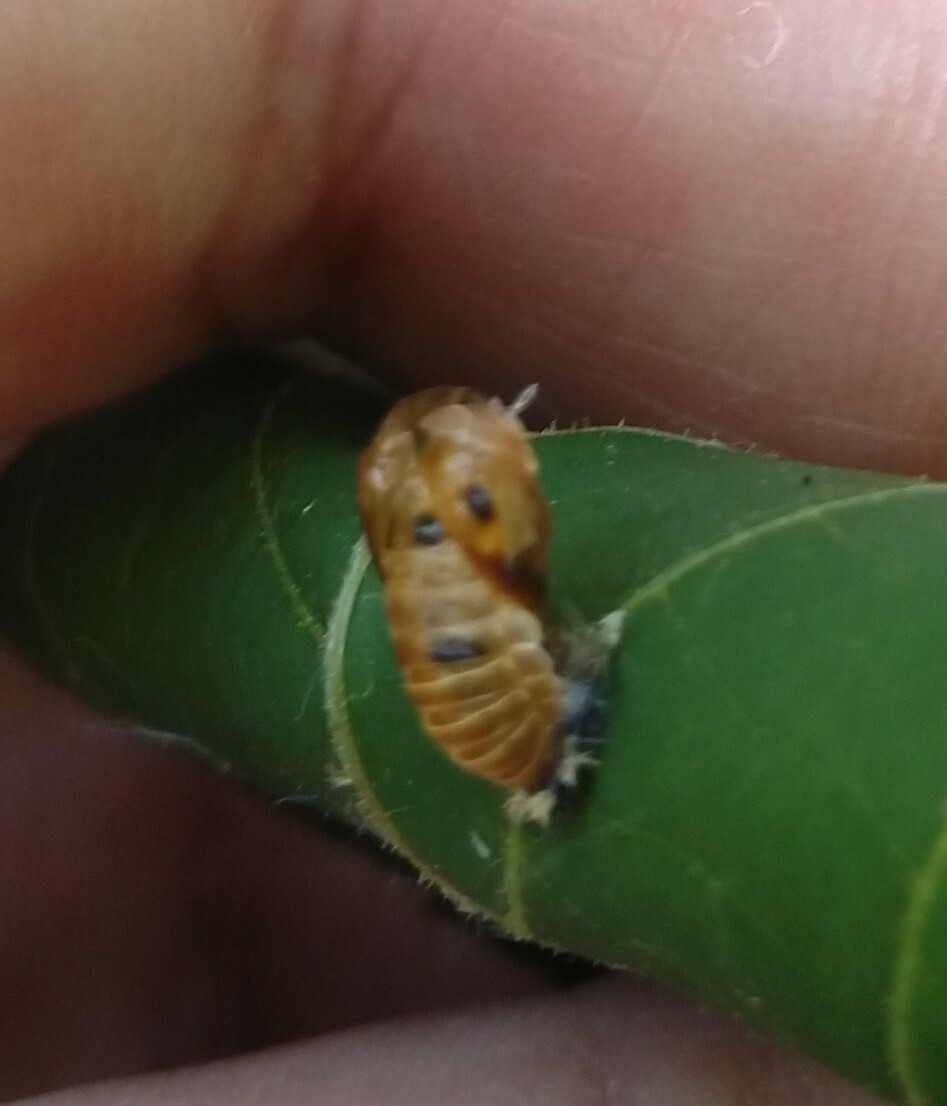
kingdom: Animalia
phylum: Arthropoda
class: Insecta
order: Coleoptera
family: Coccinellidae
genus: Harmonia
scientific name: Harmonia axyridis
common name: Harlequin ladybird
